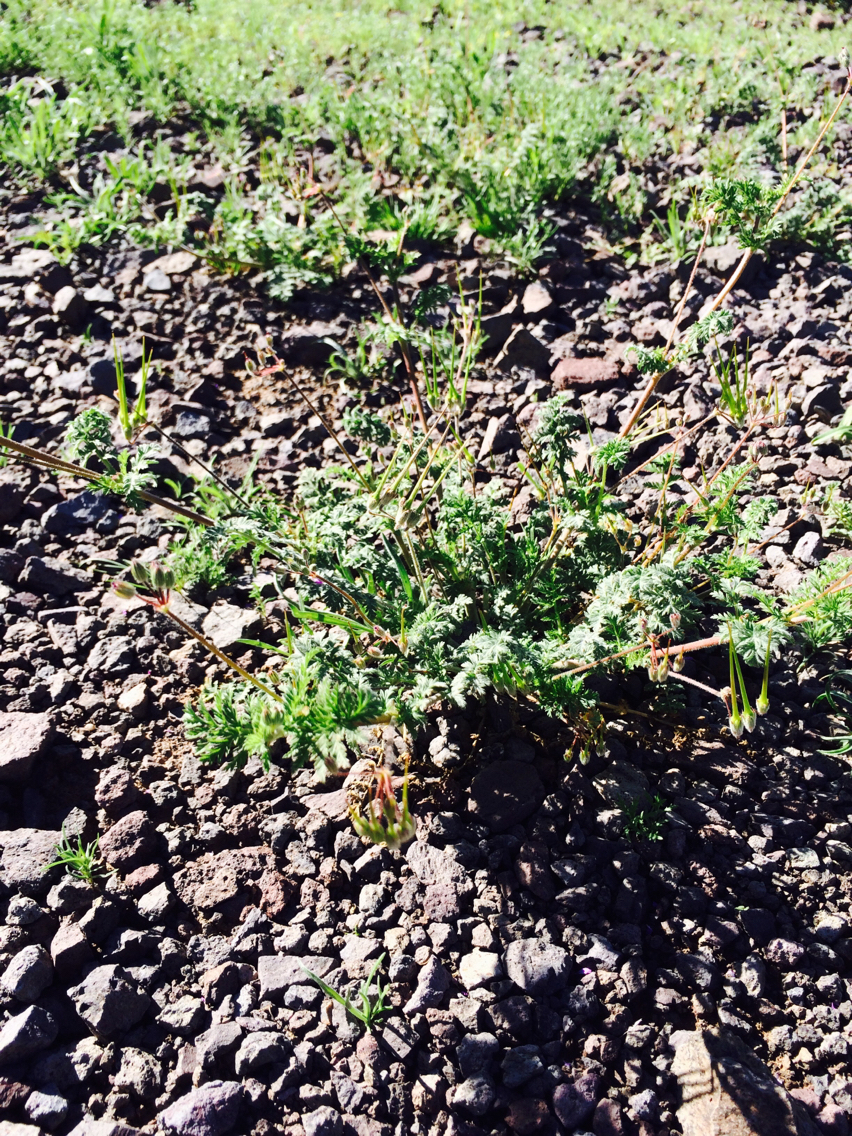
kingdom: Plantae
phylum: Tracheophyta
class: Magnoliopsida
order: Geraniales
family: Geraniaceae
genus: Erodium
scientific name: Erodium cicutarium
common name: Common stork's-bill
